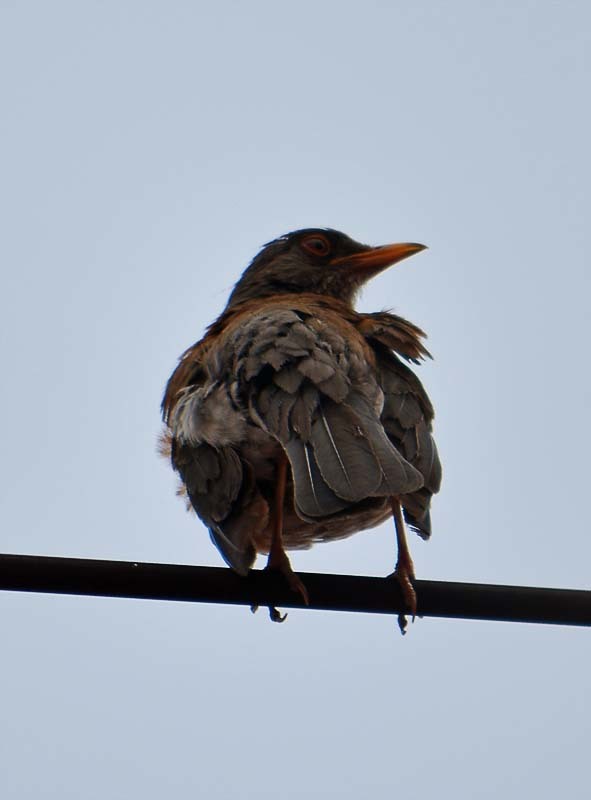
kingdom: Animalia
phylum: Chordata
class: Aves
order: Passeriformes
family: Turdidae
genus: Turdus
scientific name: Turdus rufopalliatus
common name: Rufous-backed robin
